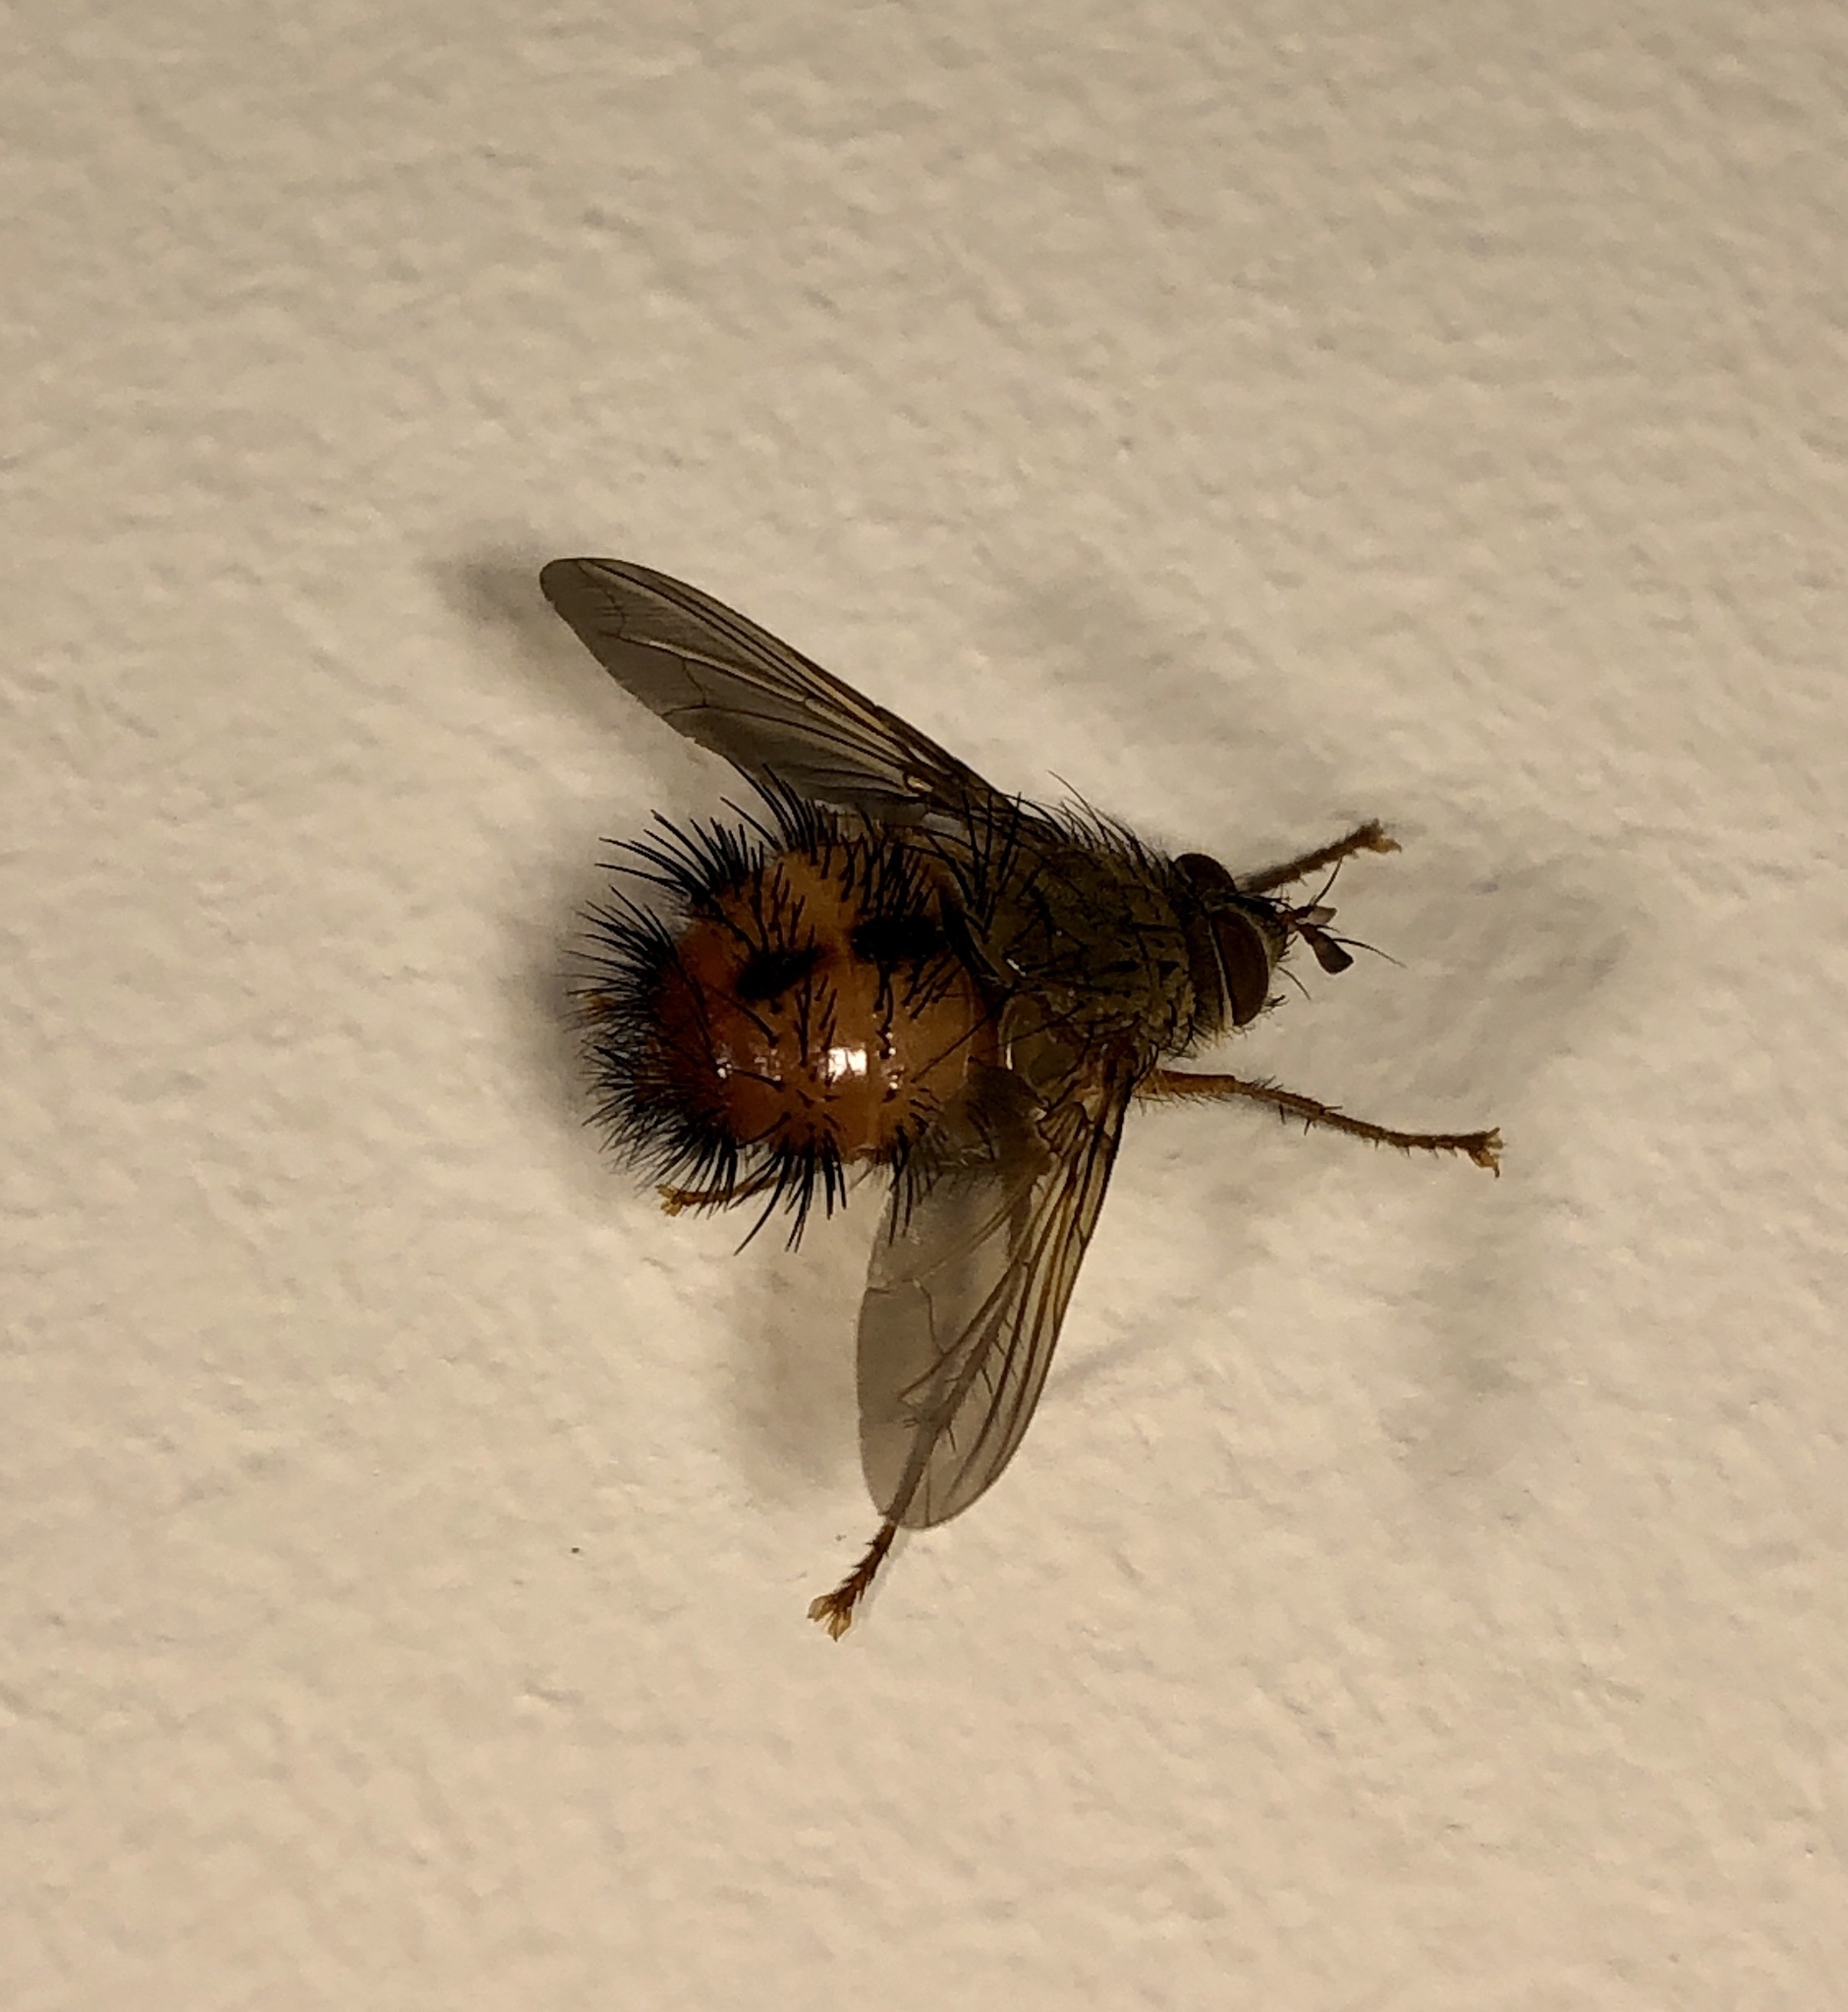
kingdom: Animalia
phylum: Arthropoda
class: Insecta
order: Diptera
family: Tachinidae
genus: Hystricia
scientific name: Hystricia abrupta
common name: Tomato bristle fly
